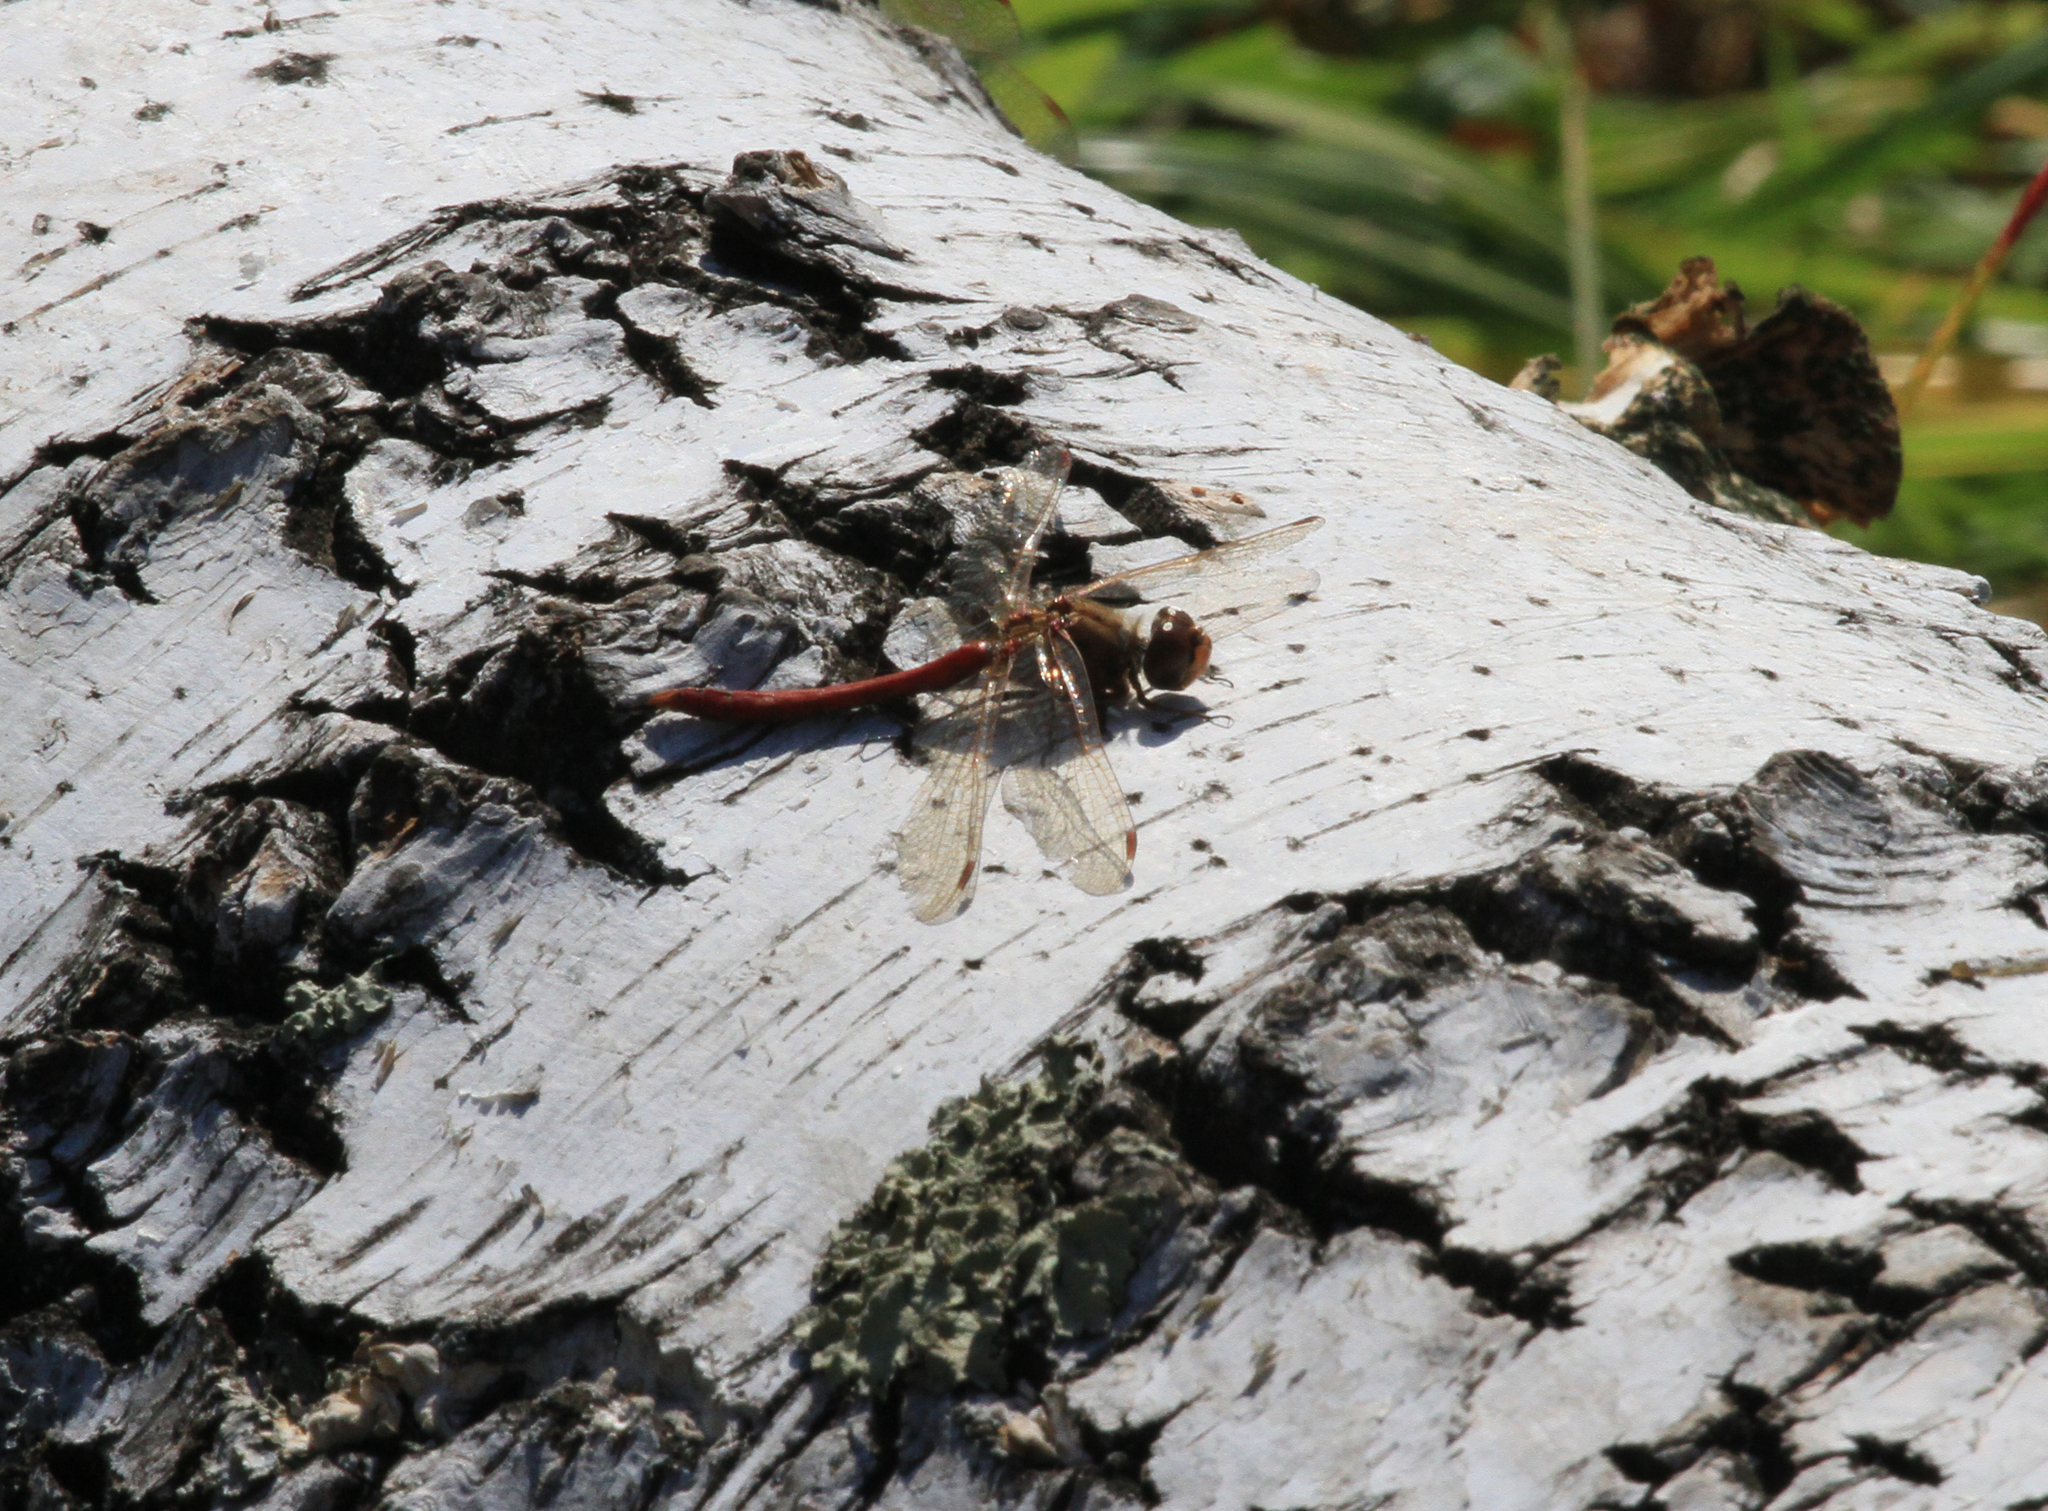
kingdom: Animalia
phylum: Arthropoda
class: Insecta
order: Odonata
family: Libellulidae
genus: Sympetrum
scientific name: Sympetrum vulgatum
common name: Vagrant darter
